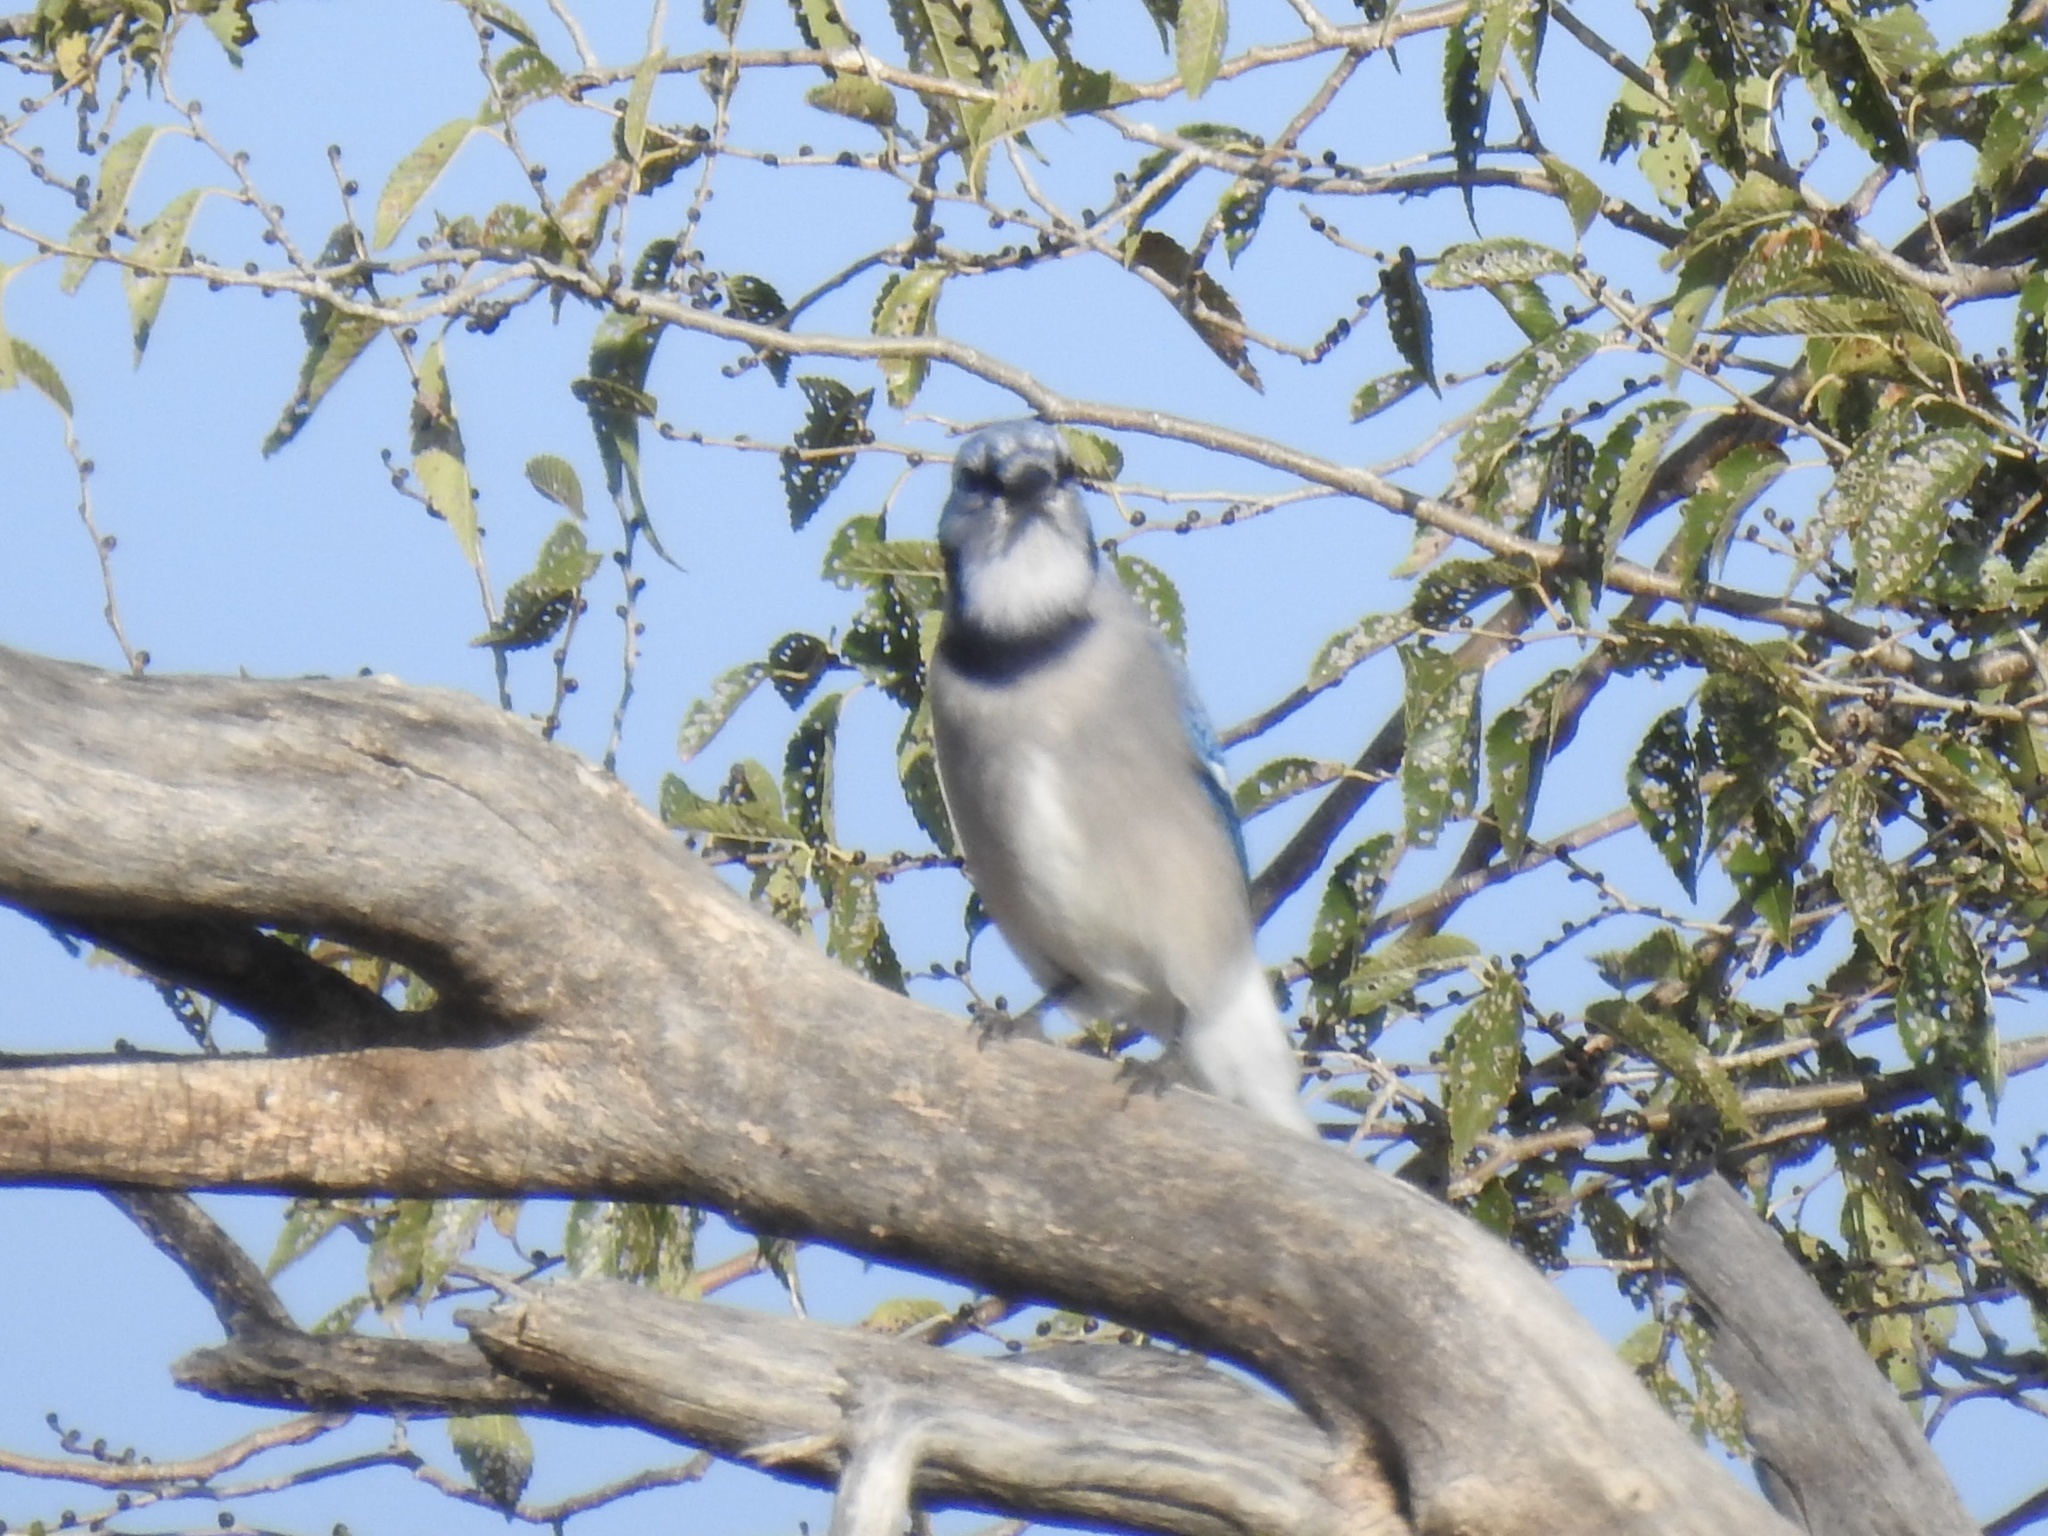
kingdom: Animalia
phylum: Chordata
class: Aves
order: Passeriformes
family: Corvidae
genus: Cyanocitta
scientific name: Cyanocitta cristata
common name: Blue jay
